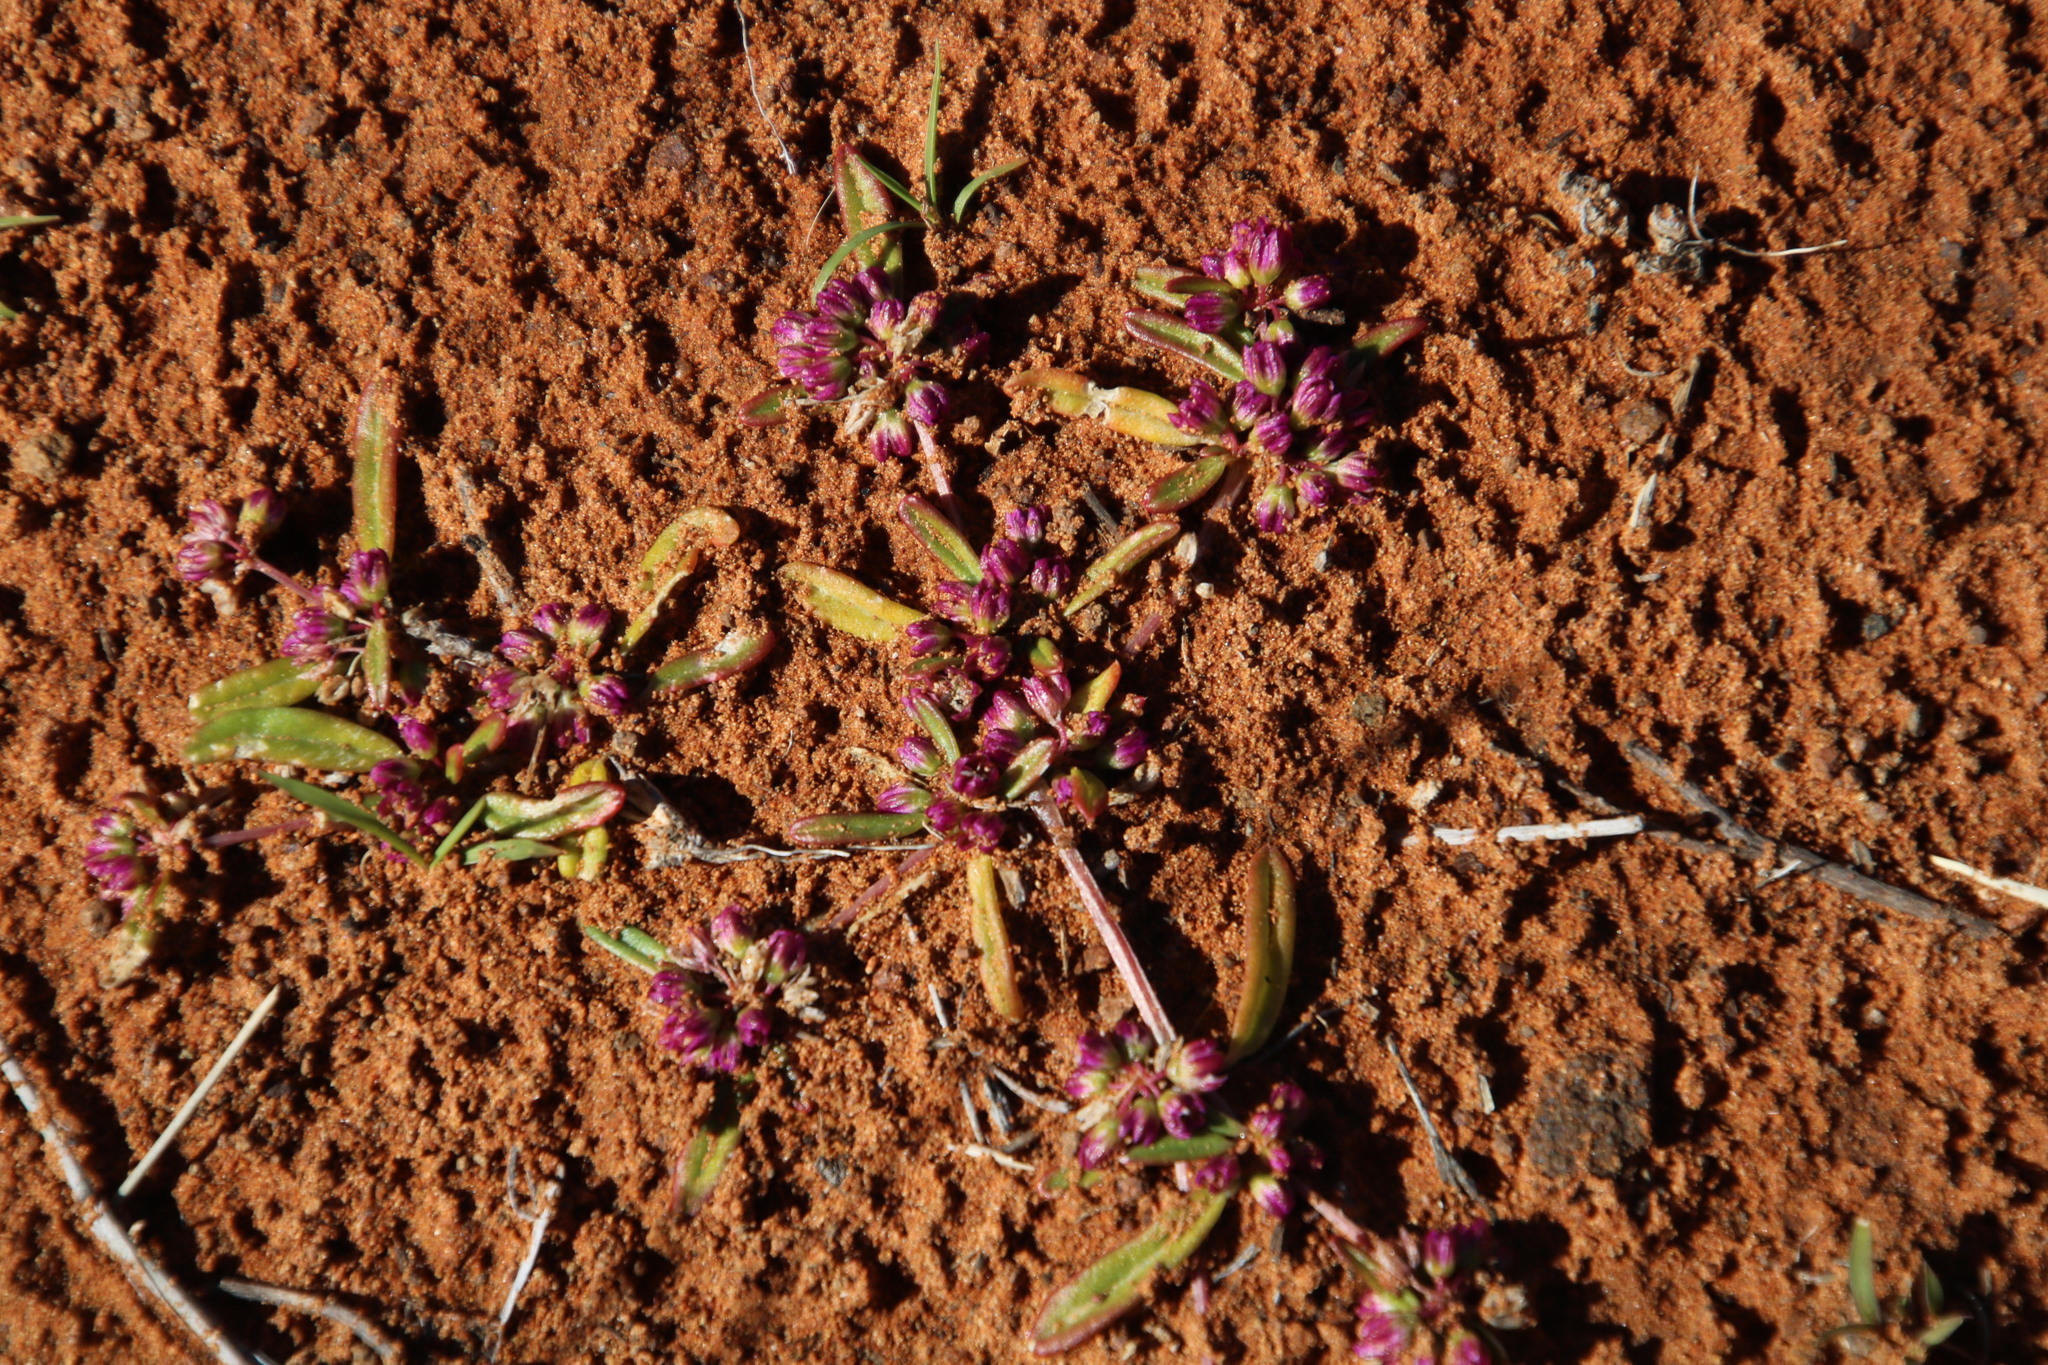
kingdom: Plantae
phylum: Tracheophyta
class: Magnoliopsida
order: Caryophyllales
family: Gisekiaceae
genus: Gisekia
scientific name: Gisekia pharnaceoides
